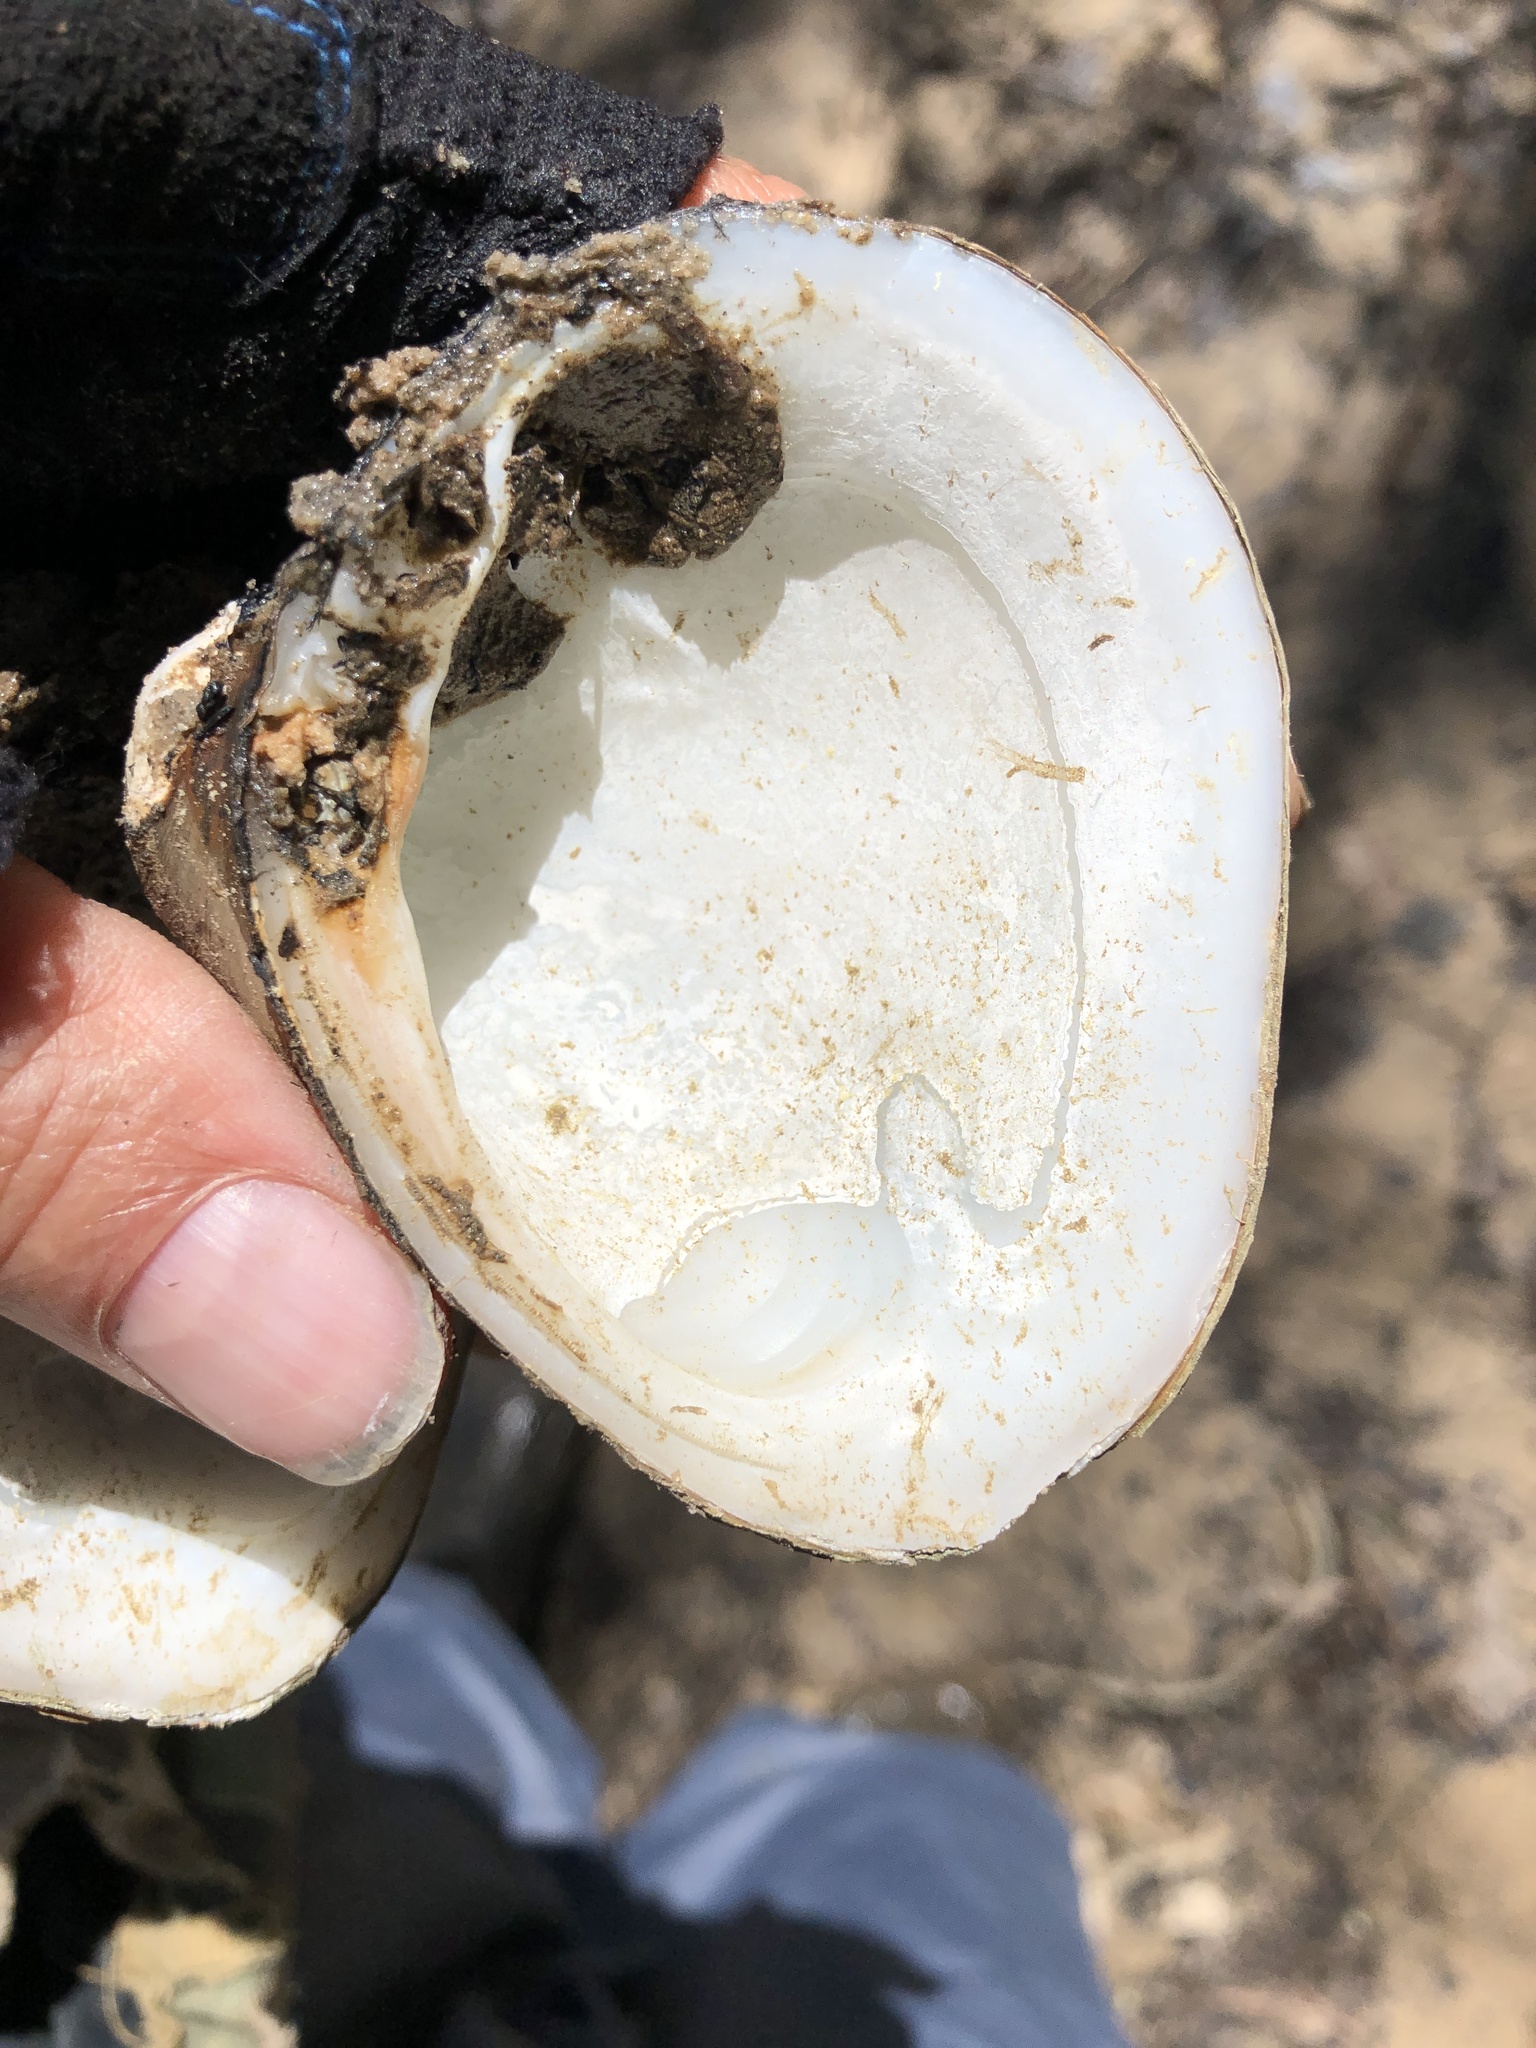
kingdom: Animalia
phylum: Mollusca
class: Bivalvia
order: Venerida
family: Mactridae
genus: Rangia
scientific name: Rangia cuneata
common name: Atlantic rangia
